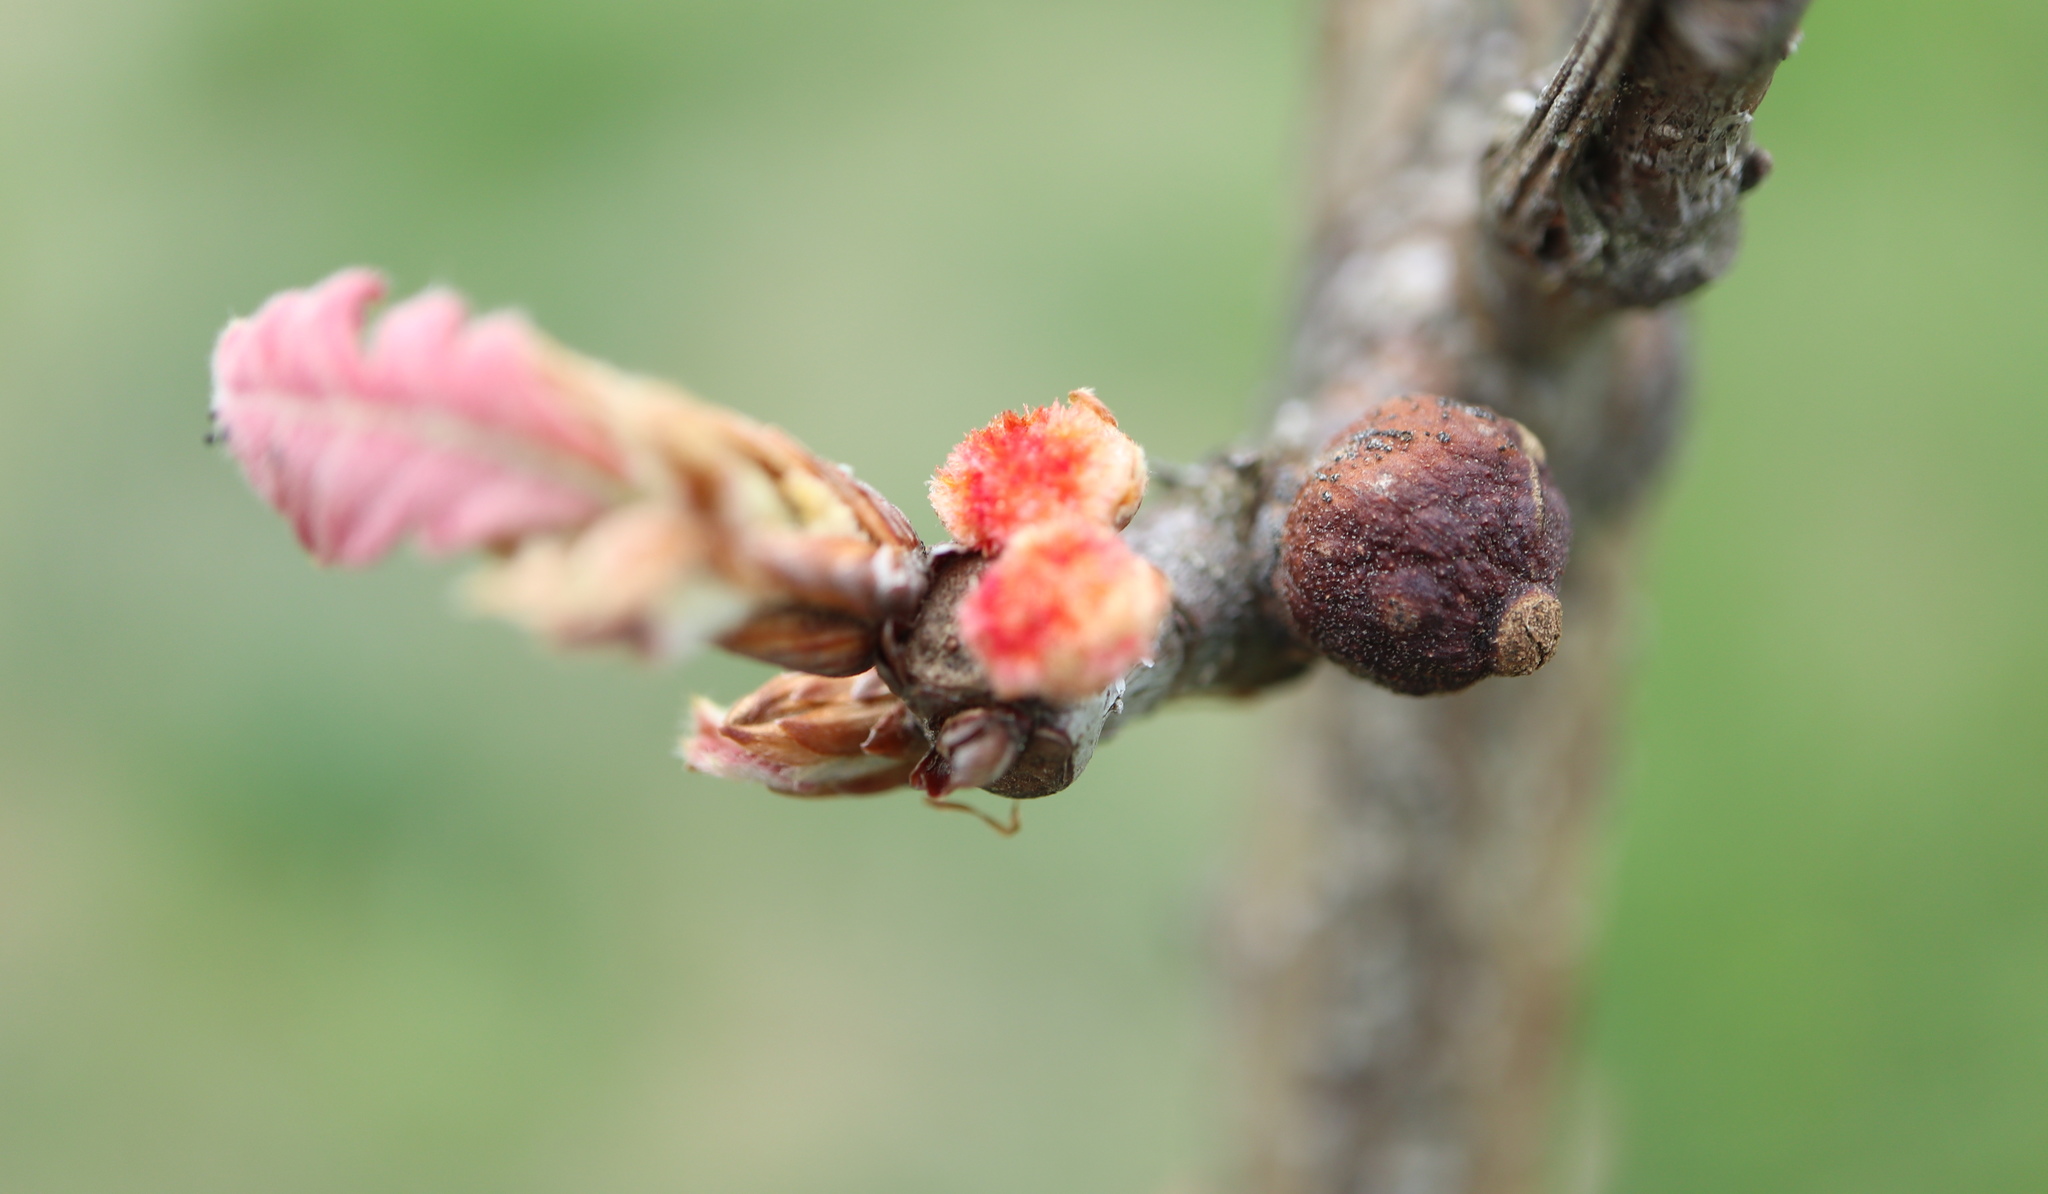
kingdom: Animalia
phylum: Arthropoda
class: Insecta
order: Hymenoptera
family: Cynipidae
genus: Callirhytis
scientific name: Callirhytis
